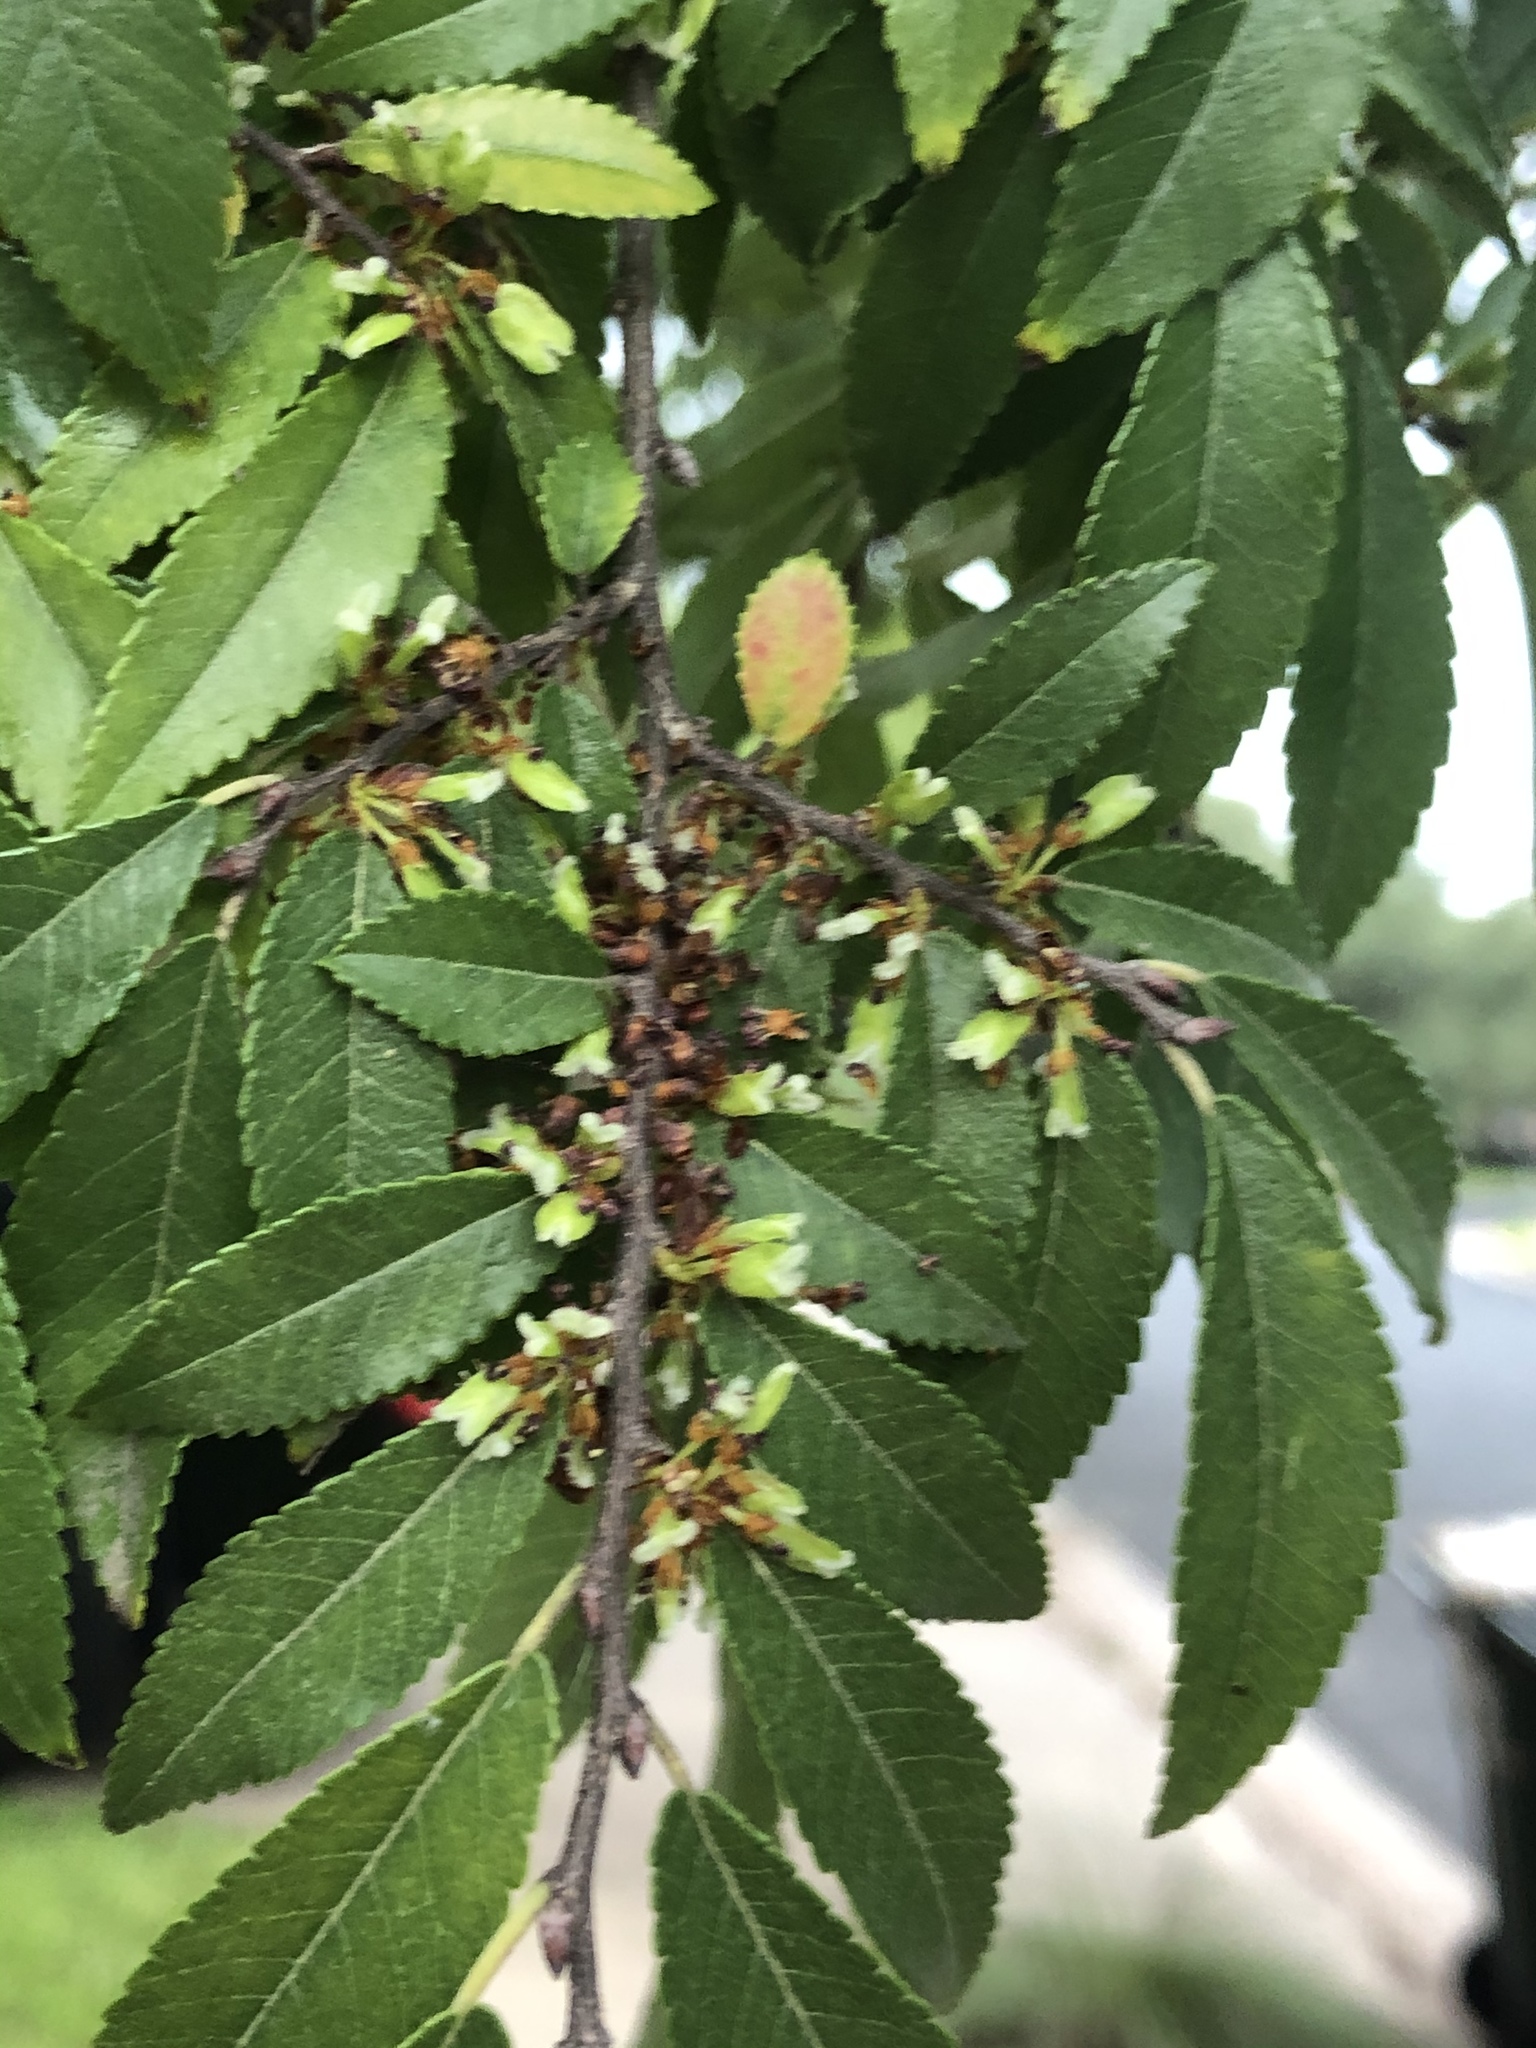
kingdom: Plantae
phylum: Tracheophyta
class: Magnoliopsida
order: Rosales
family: Ulmaceae
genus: Ulmus
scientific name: Ulmus parvifolia
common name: Chinese elm
